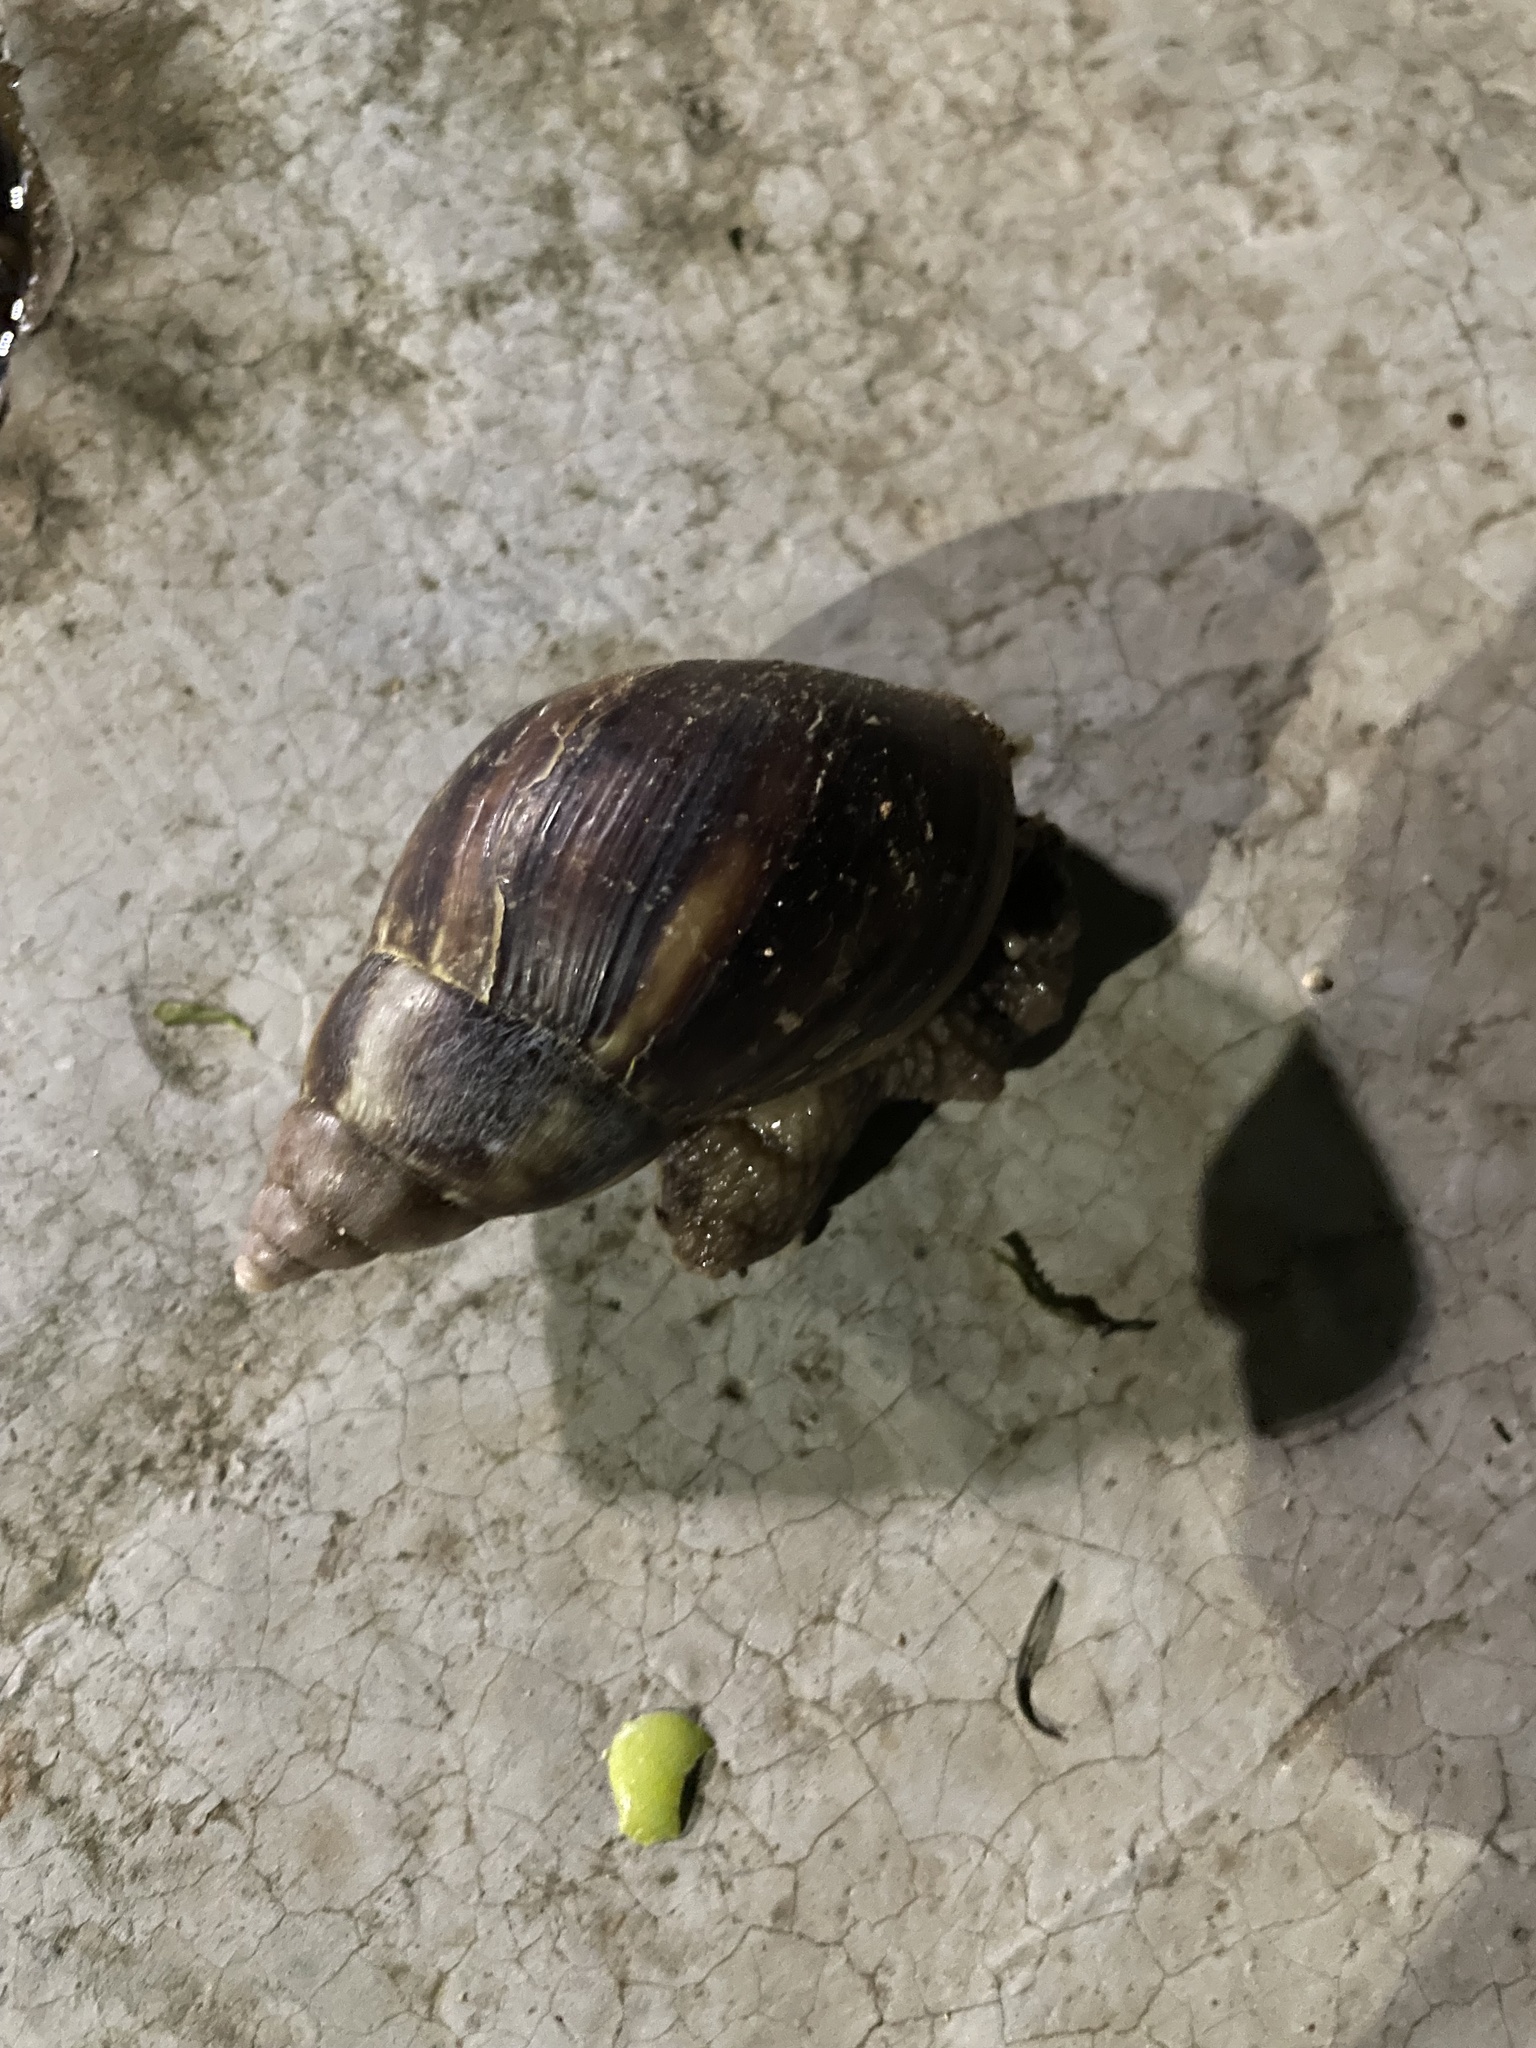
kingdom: Animalia
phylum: Mollusca
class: Gastropoda
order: Stylommatophora
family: Achatinidae
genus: Lissachatina
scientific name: Lissachatina fulica
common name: Giant african snail
